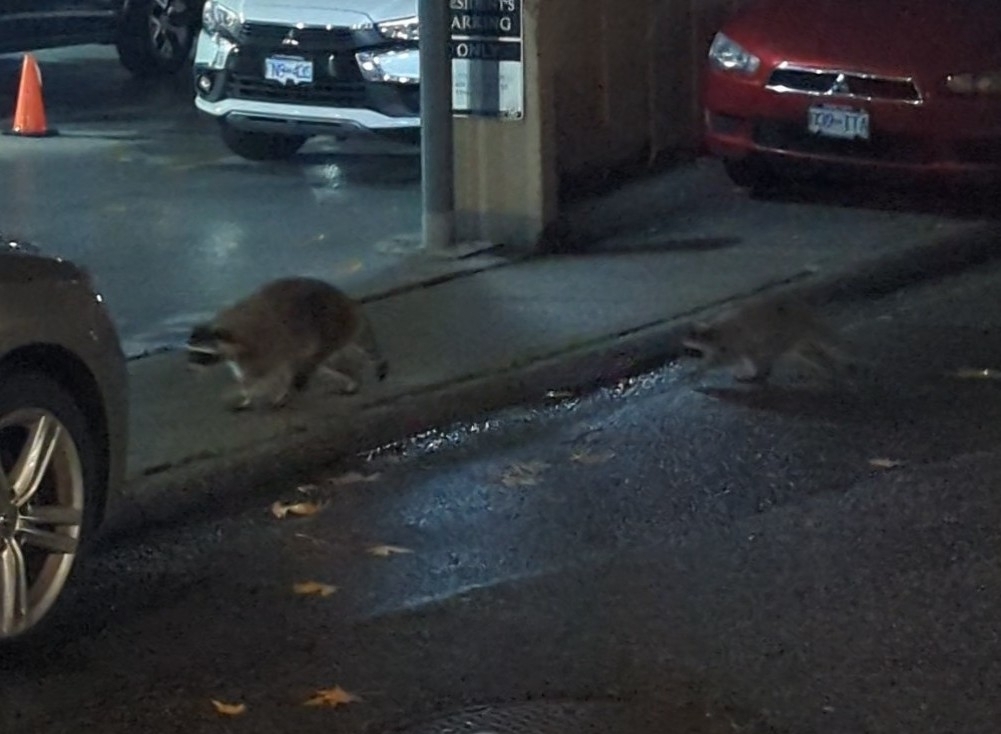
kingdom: Animalia
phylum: Chordata
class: Mammalia
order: Carnivora
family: Procyonidae
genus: Procyon
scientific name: Procyon lotor
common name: Raccoon
